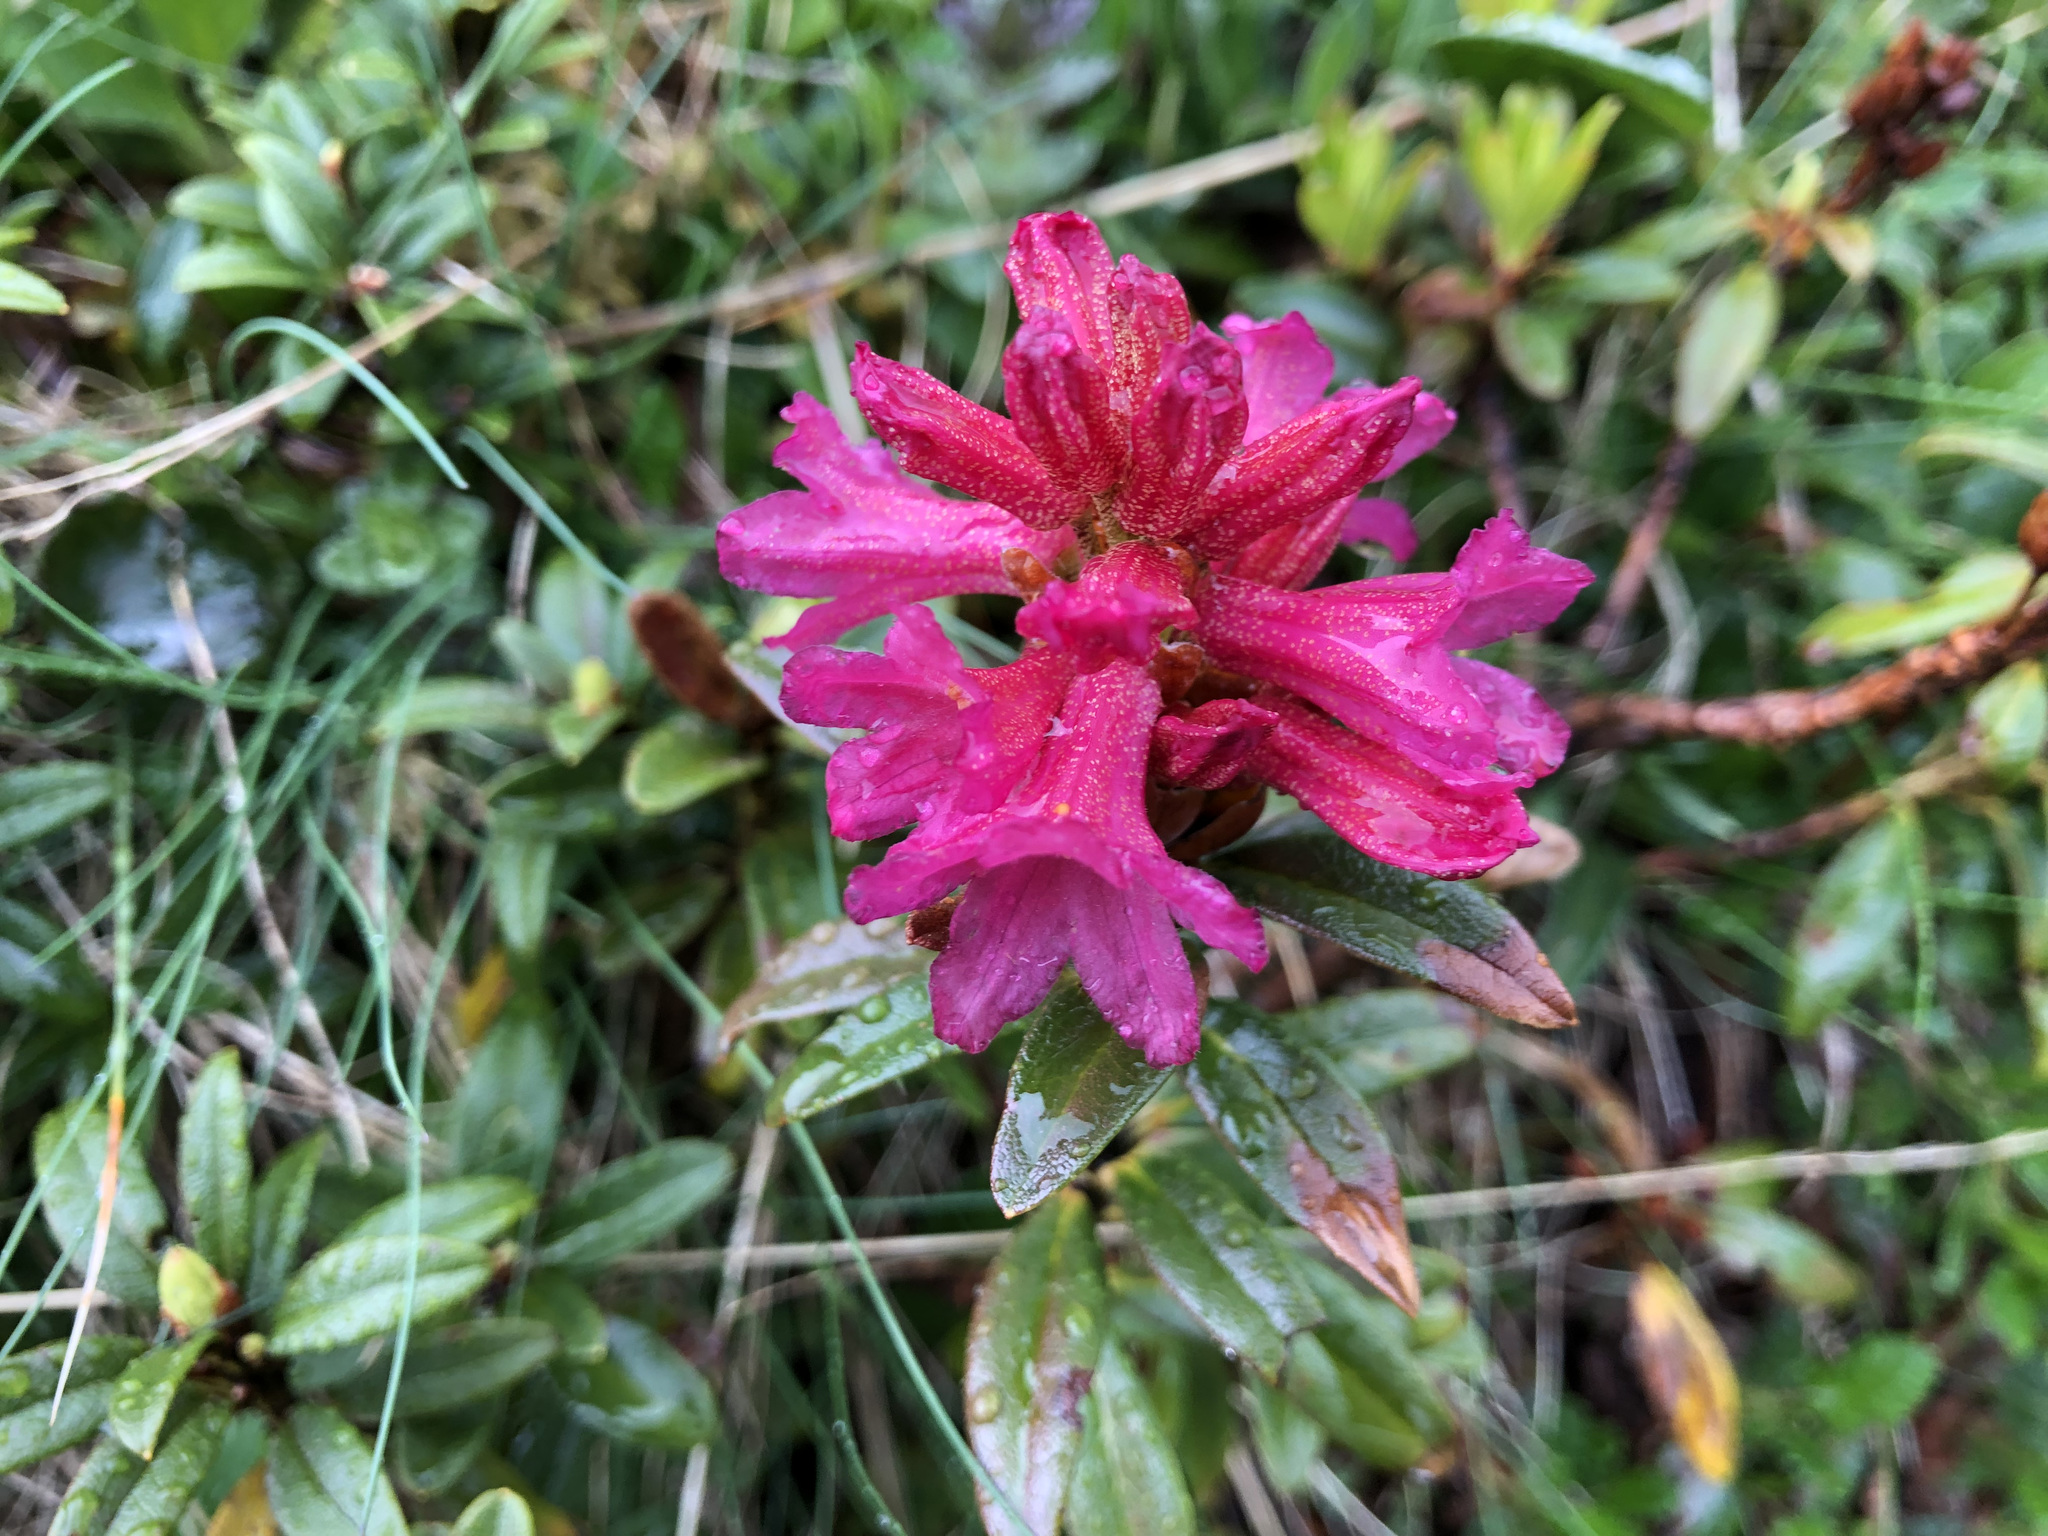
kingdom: Plantae
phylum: Tracheophyta
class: Magnoliopsida
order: Ericales
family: Ericaceae
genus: Rhododendron
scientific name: Rhododendron ferrugineum
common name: Alpenrose
